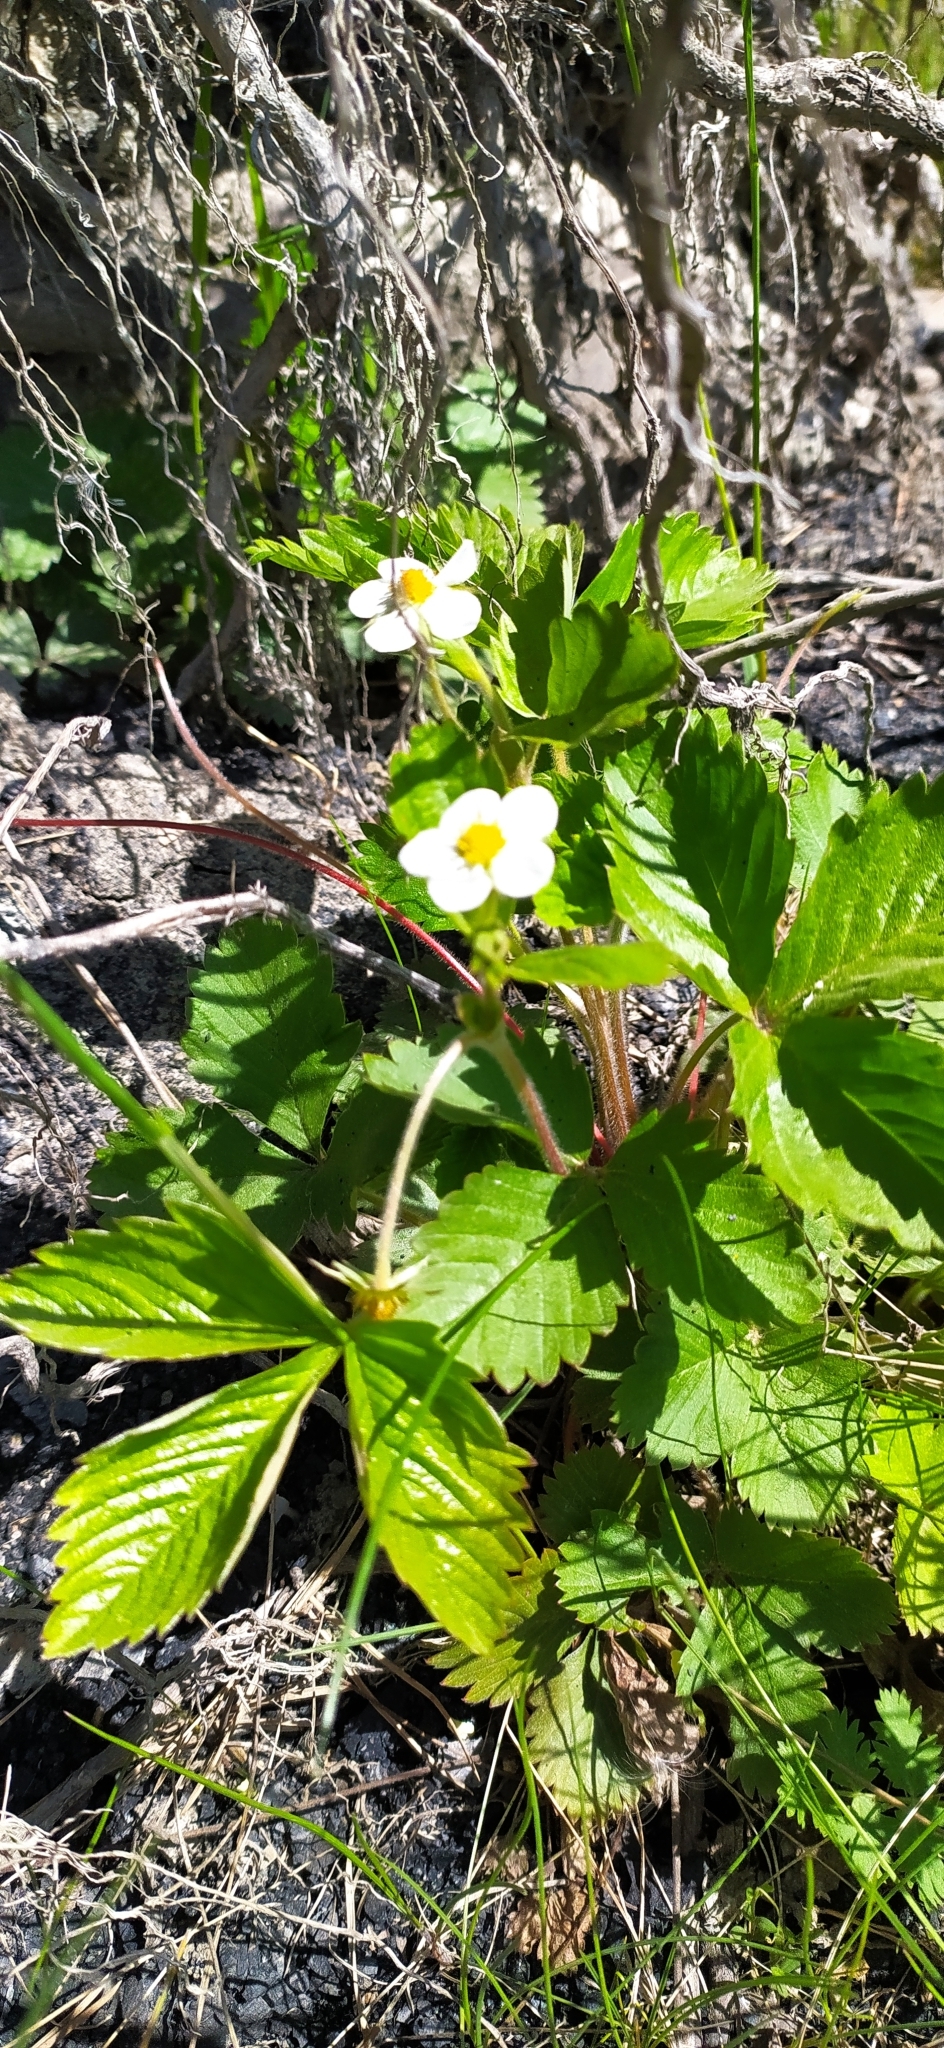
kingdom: Plantae
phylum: Tracheophyta
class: Magnoliopsida
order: Rosales
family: Rosaceae
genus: Fragaria
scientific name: Fragaria vesca
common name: Wild strawberry
